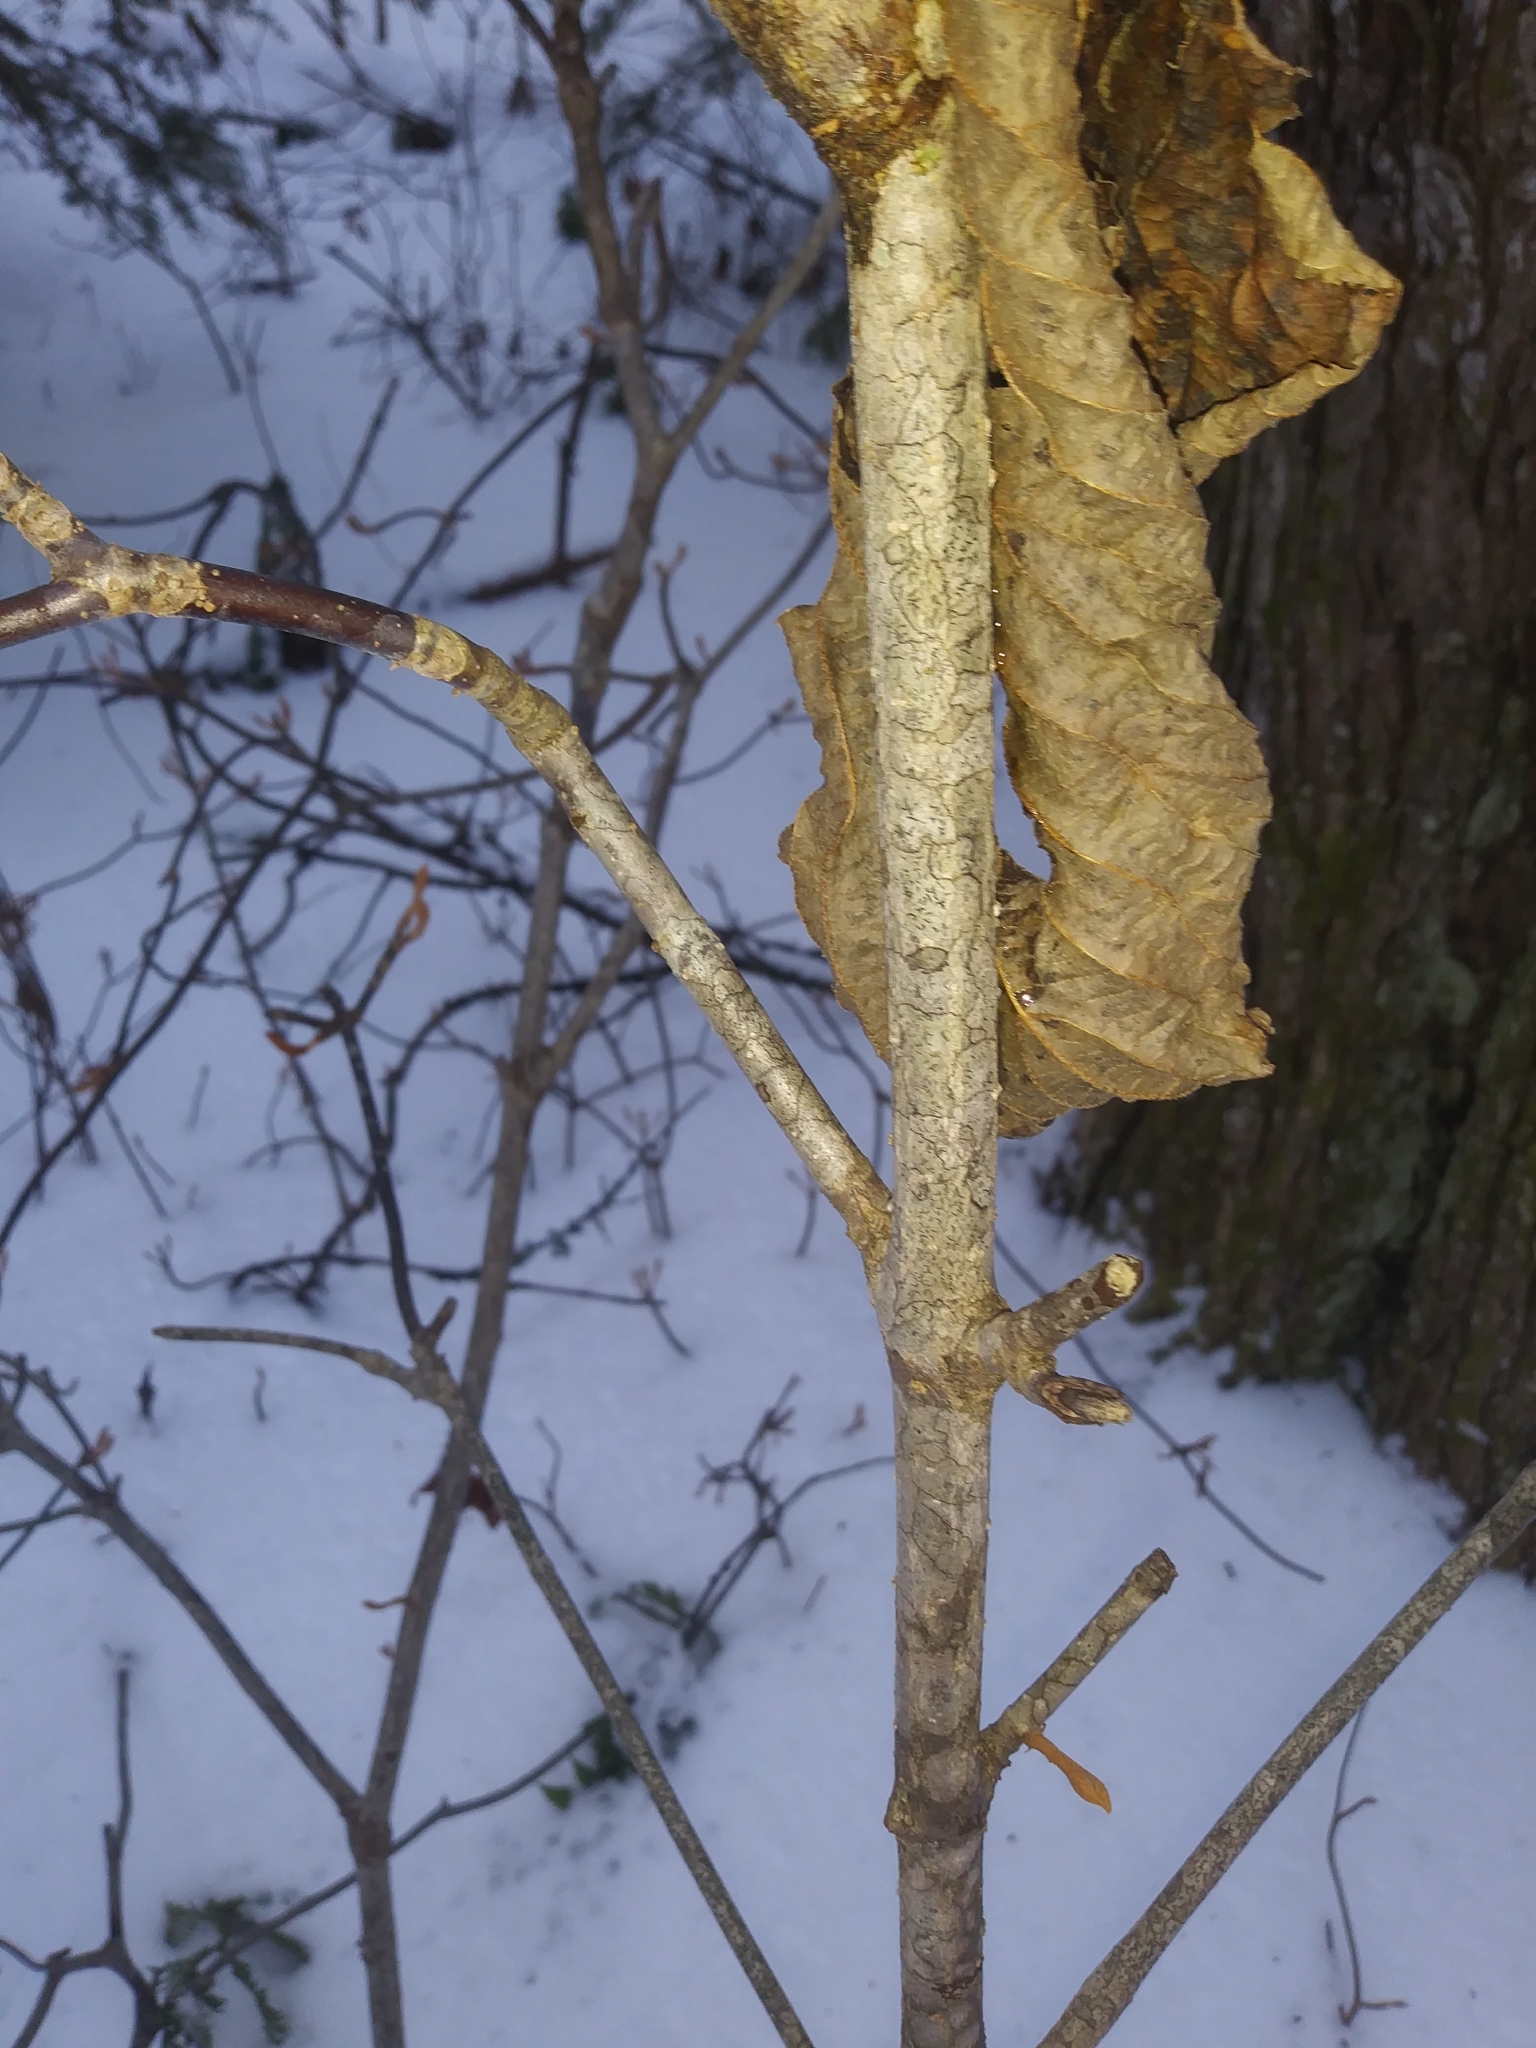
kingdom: Plantae
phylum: Tracheophyta
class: Magnoliopsida
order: Dipsacales
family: Viburnaceae
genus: Viburnum
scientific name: Viburnum lantanoides
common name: Hobblebush
